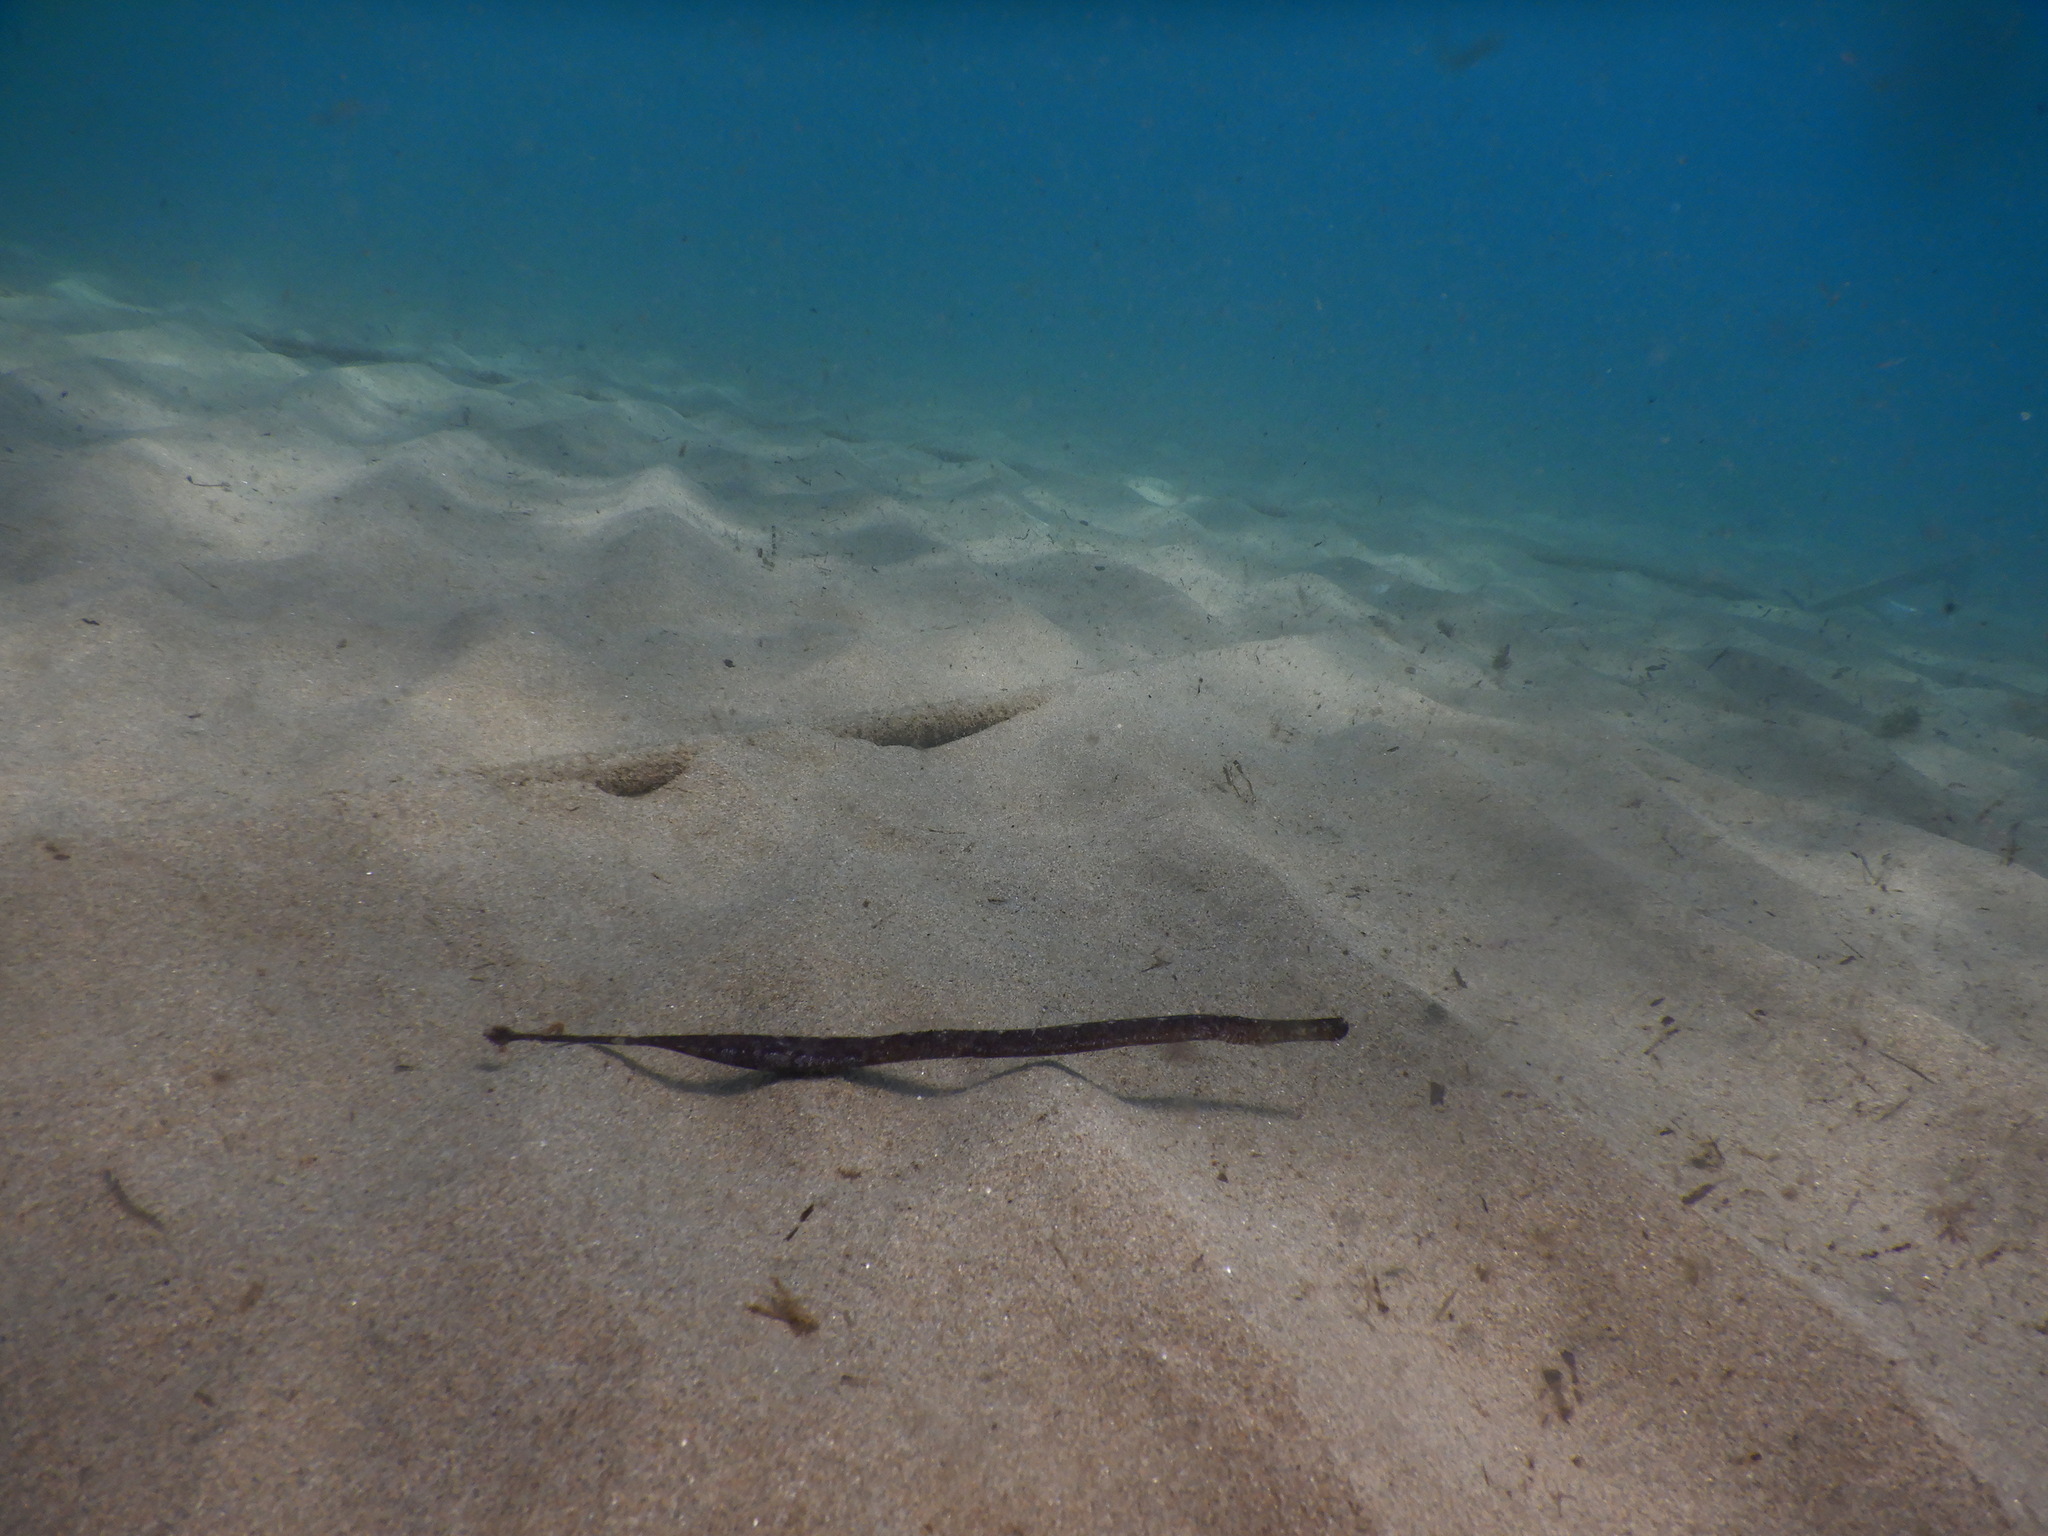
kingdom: Animalia
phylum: Chordata
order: Syngnathiformes
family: Syngnathidae
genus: Syngnathus
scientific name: Syngnathus typhle
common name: Deep-snouted pipefish
